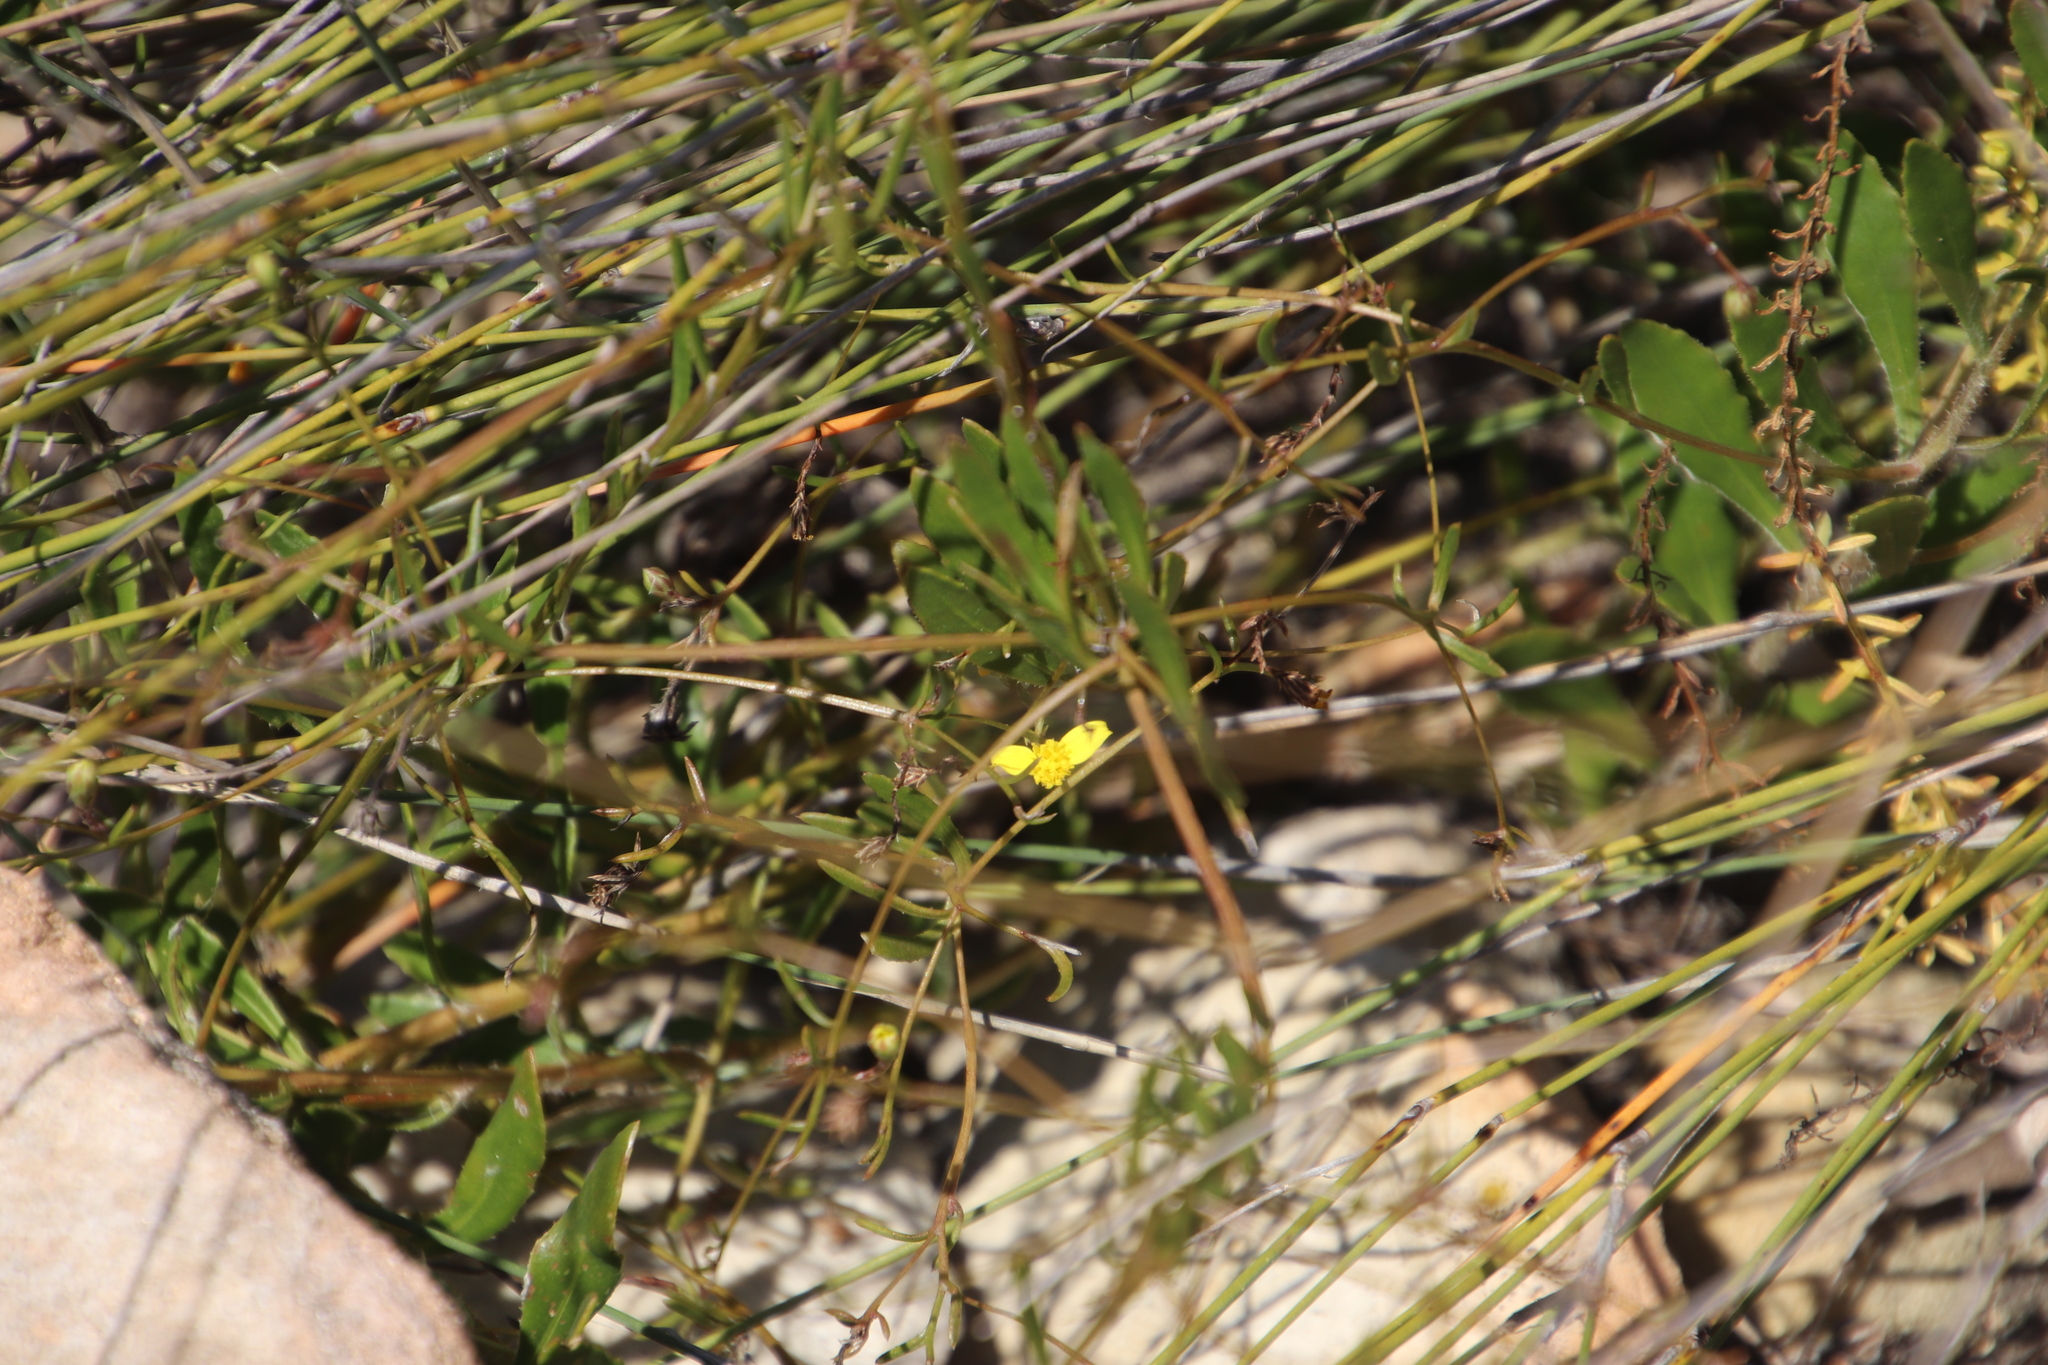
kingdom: Plantae
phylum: Tracheophyta
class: Magnoliopsida
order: Asterales
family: Asteraceae
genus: Osteospermum
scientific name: Osteospermum ciliatum
